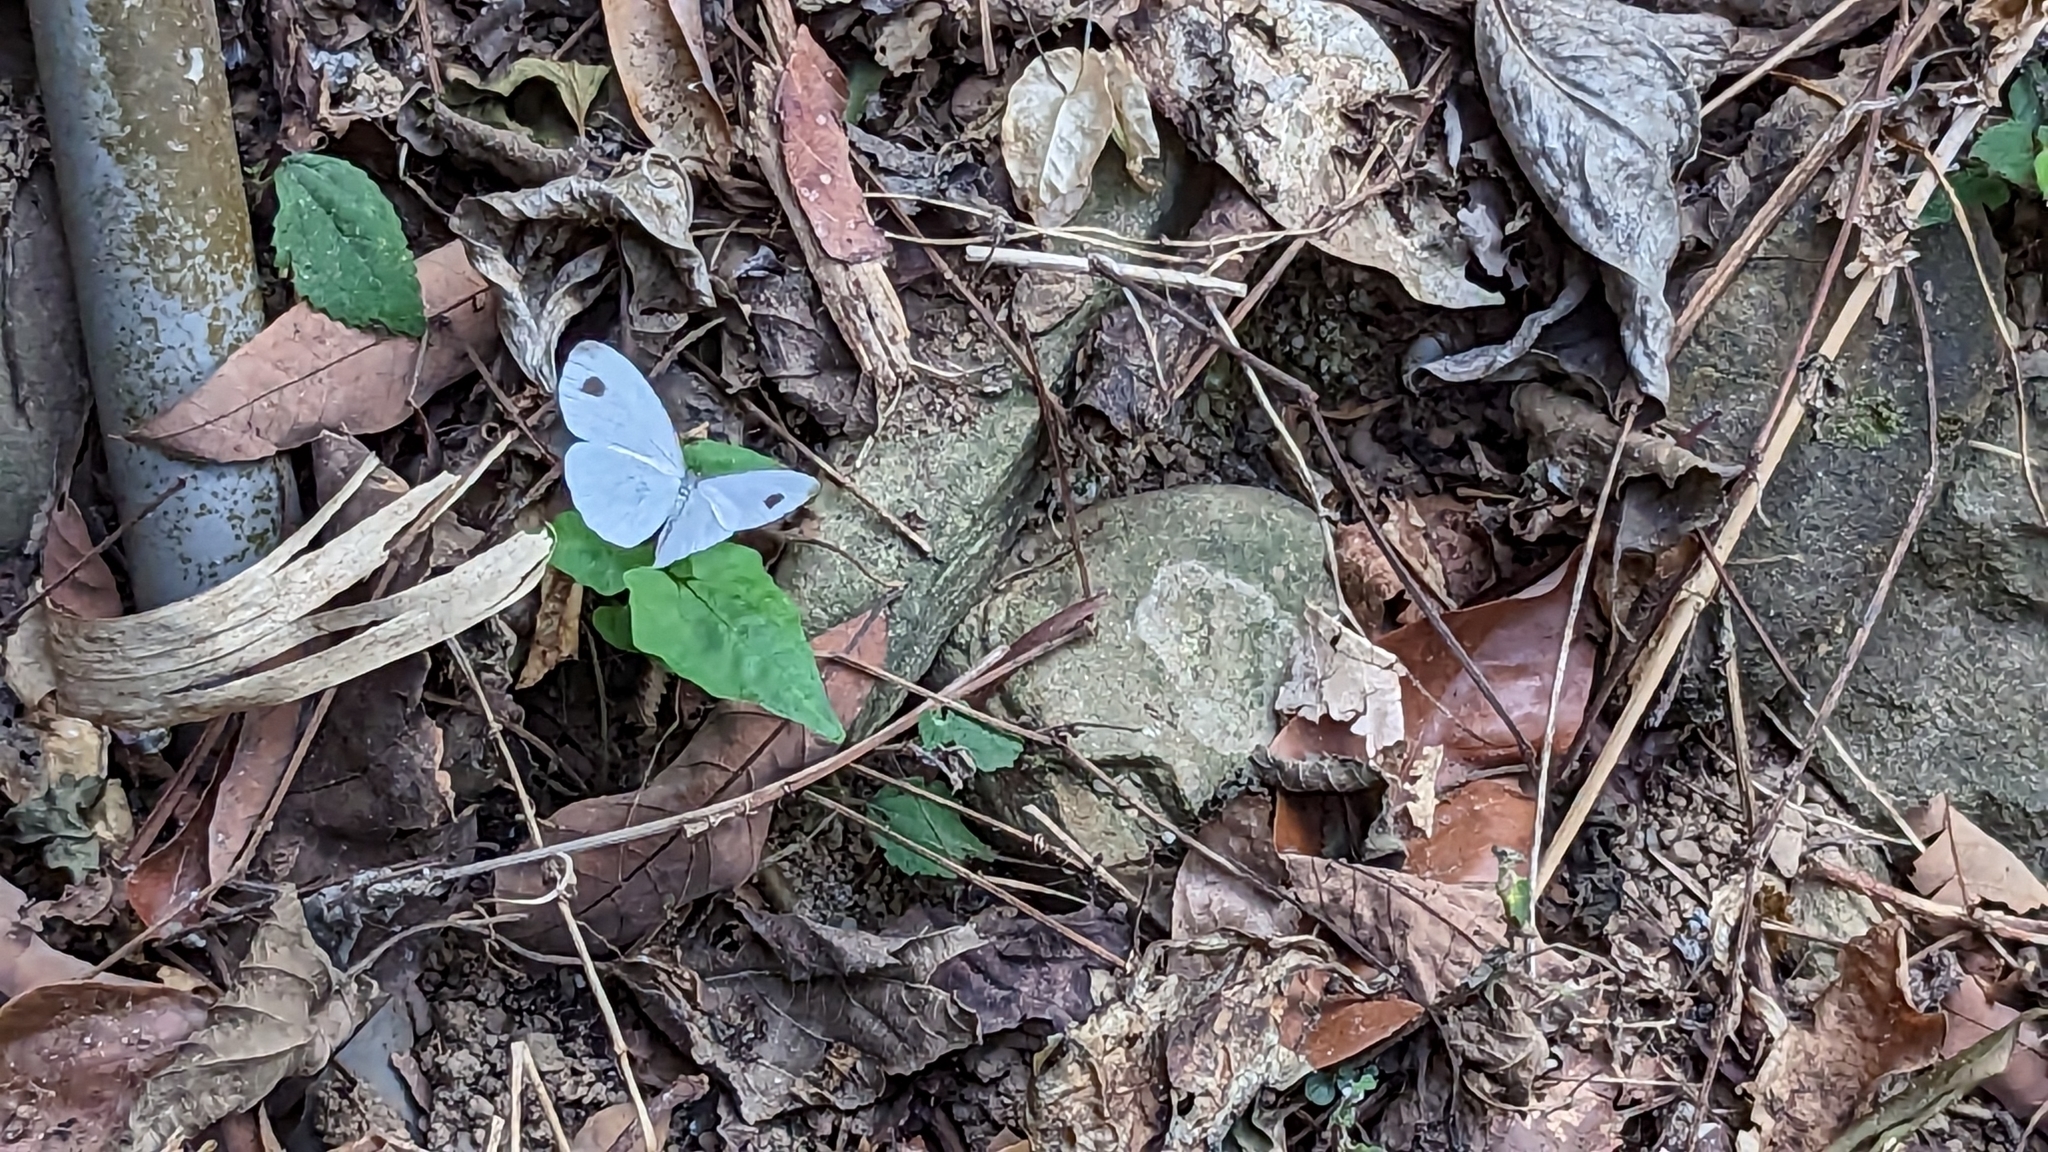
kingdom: Animalia
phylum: Arthropoda
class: Insecta
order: Lepidoptera
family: Pieridae
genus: Leptosia
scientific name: Leptosia nina
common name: Psyche
